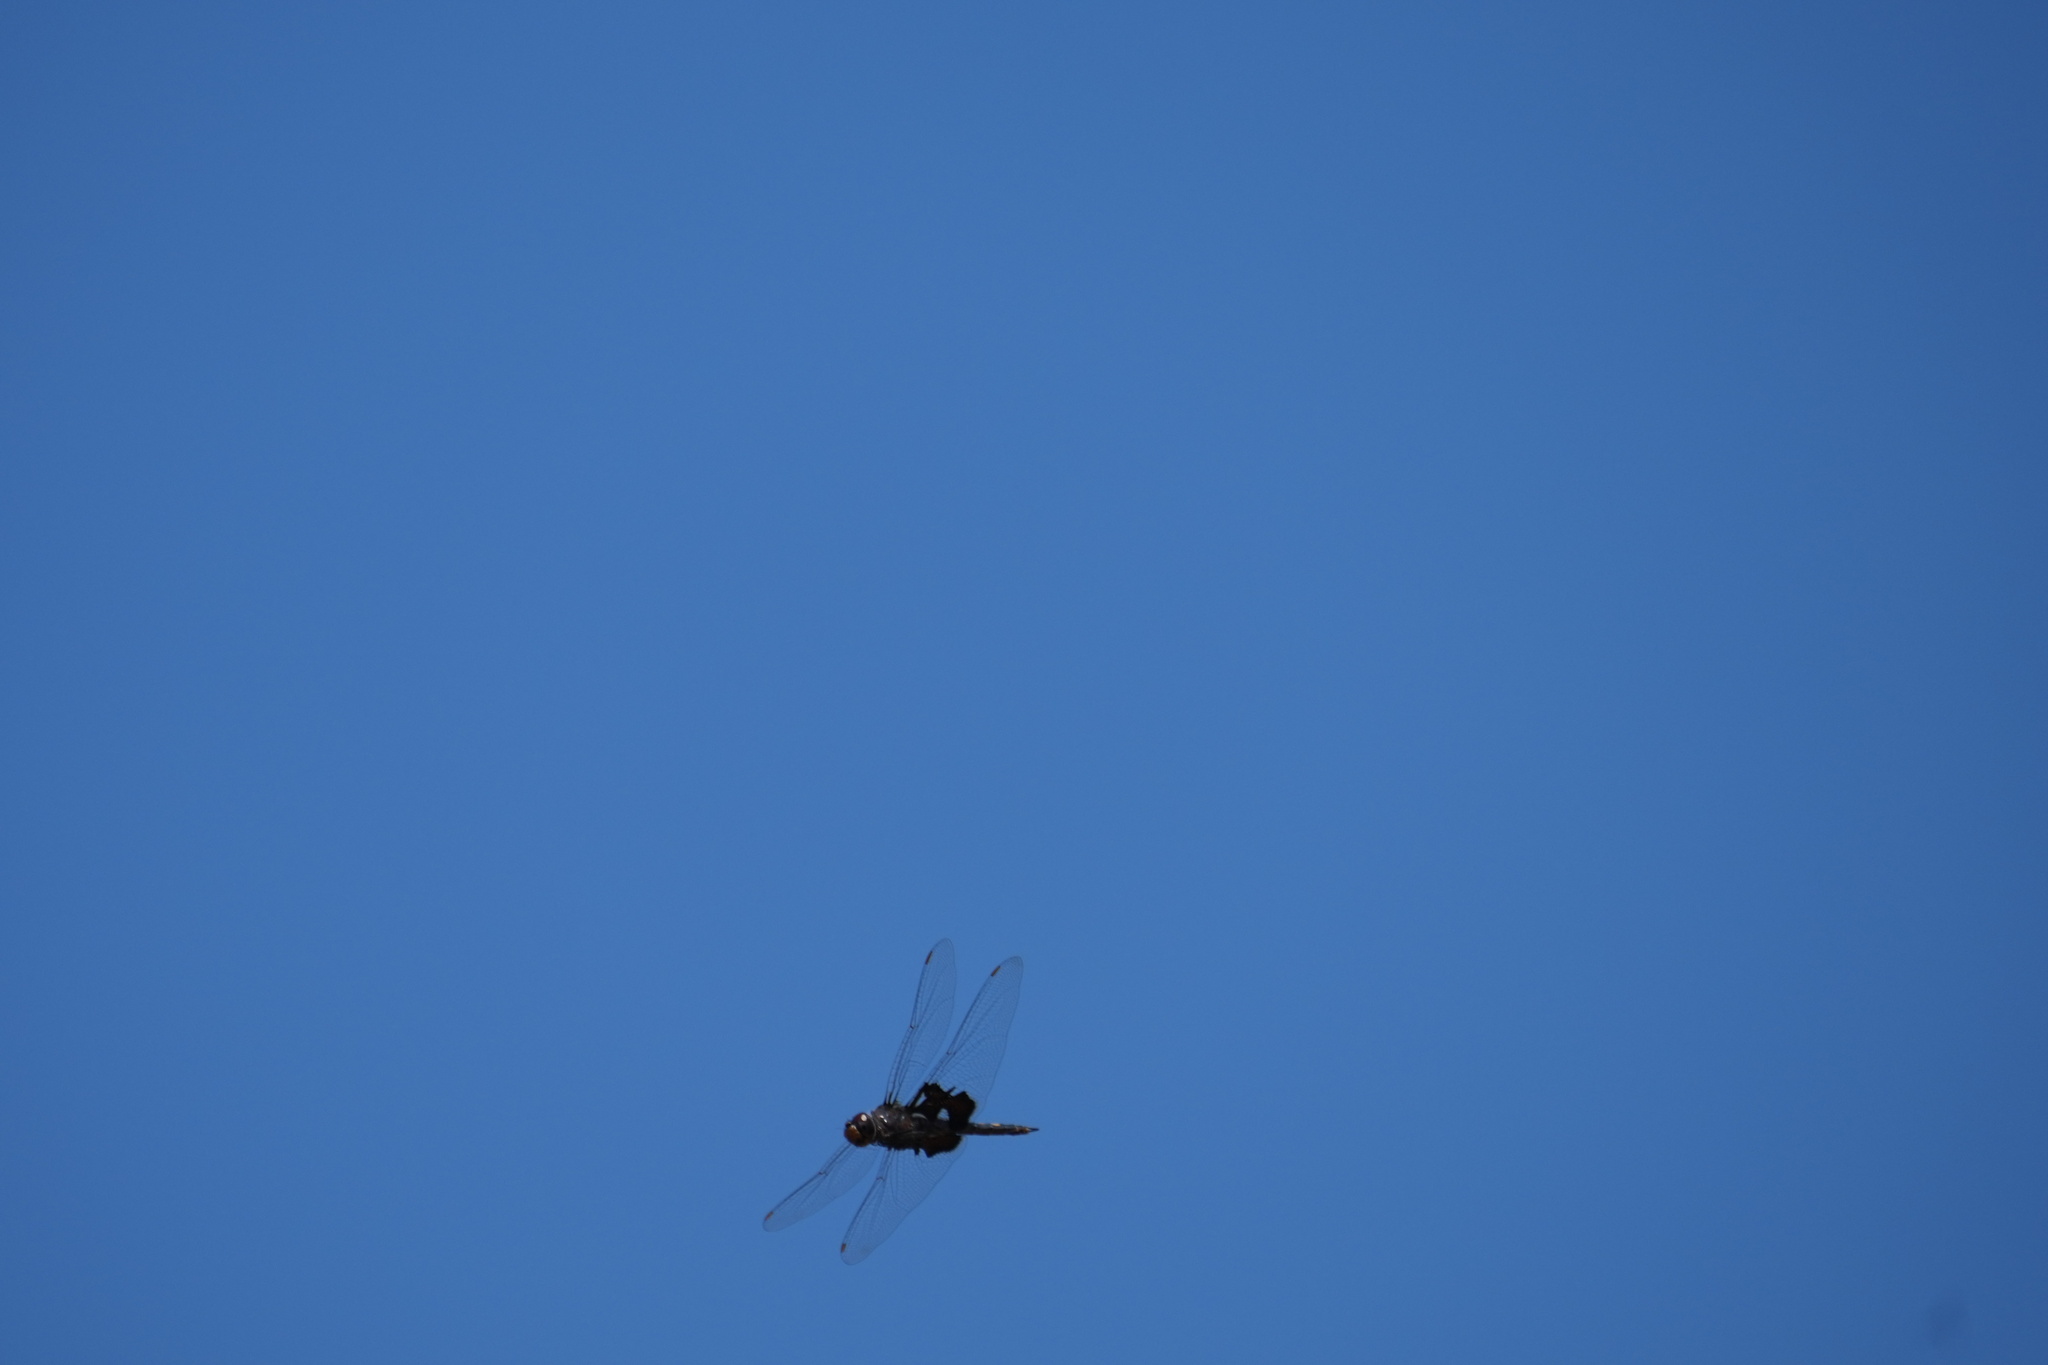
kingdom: Animalia
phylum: Arthropoda
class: Insecta
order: Odonata
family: Libellulidae
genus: Tramea
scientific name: Tramea lacerata
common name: Black saddlebags
